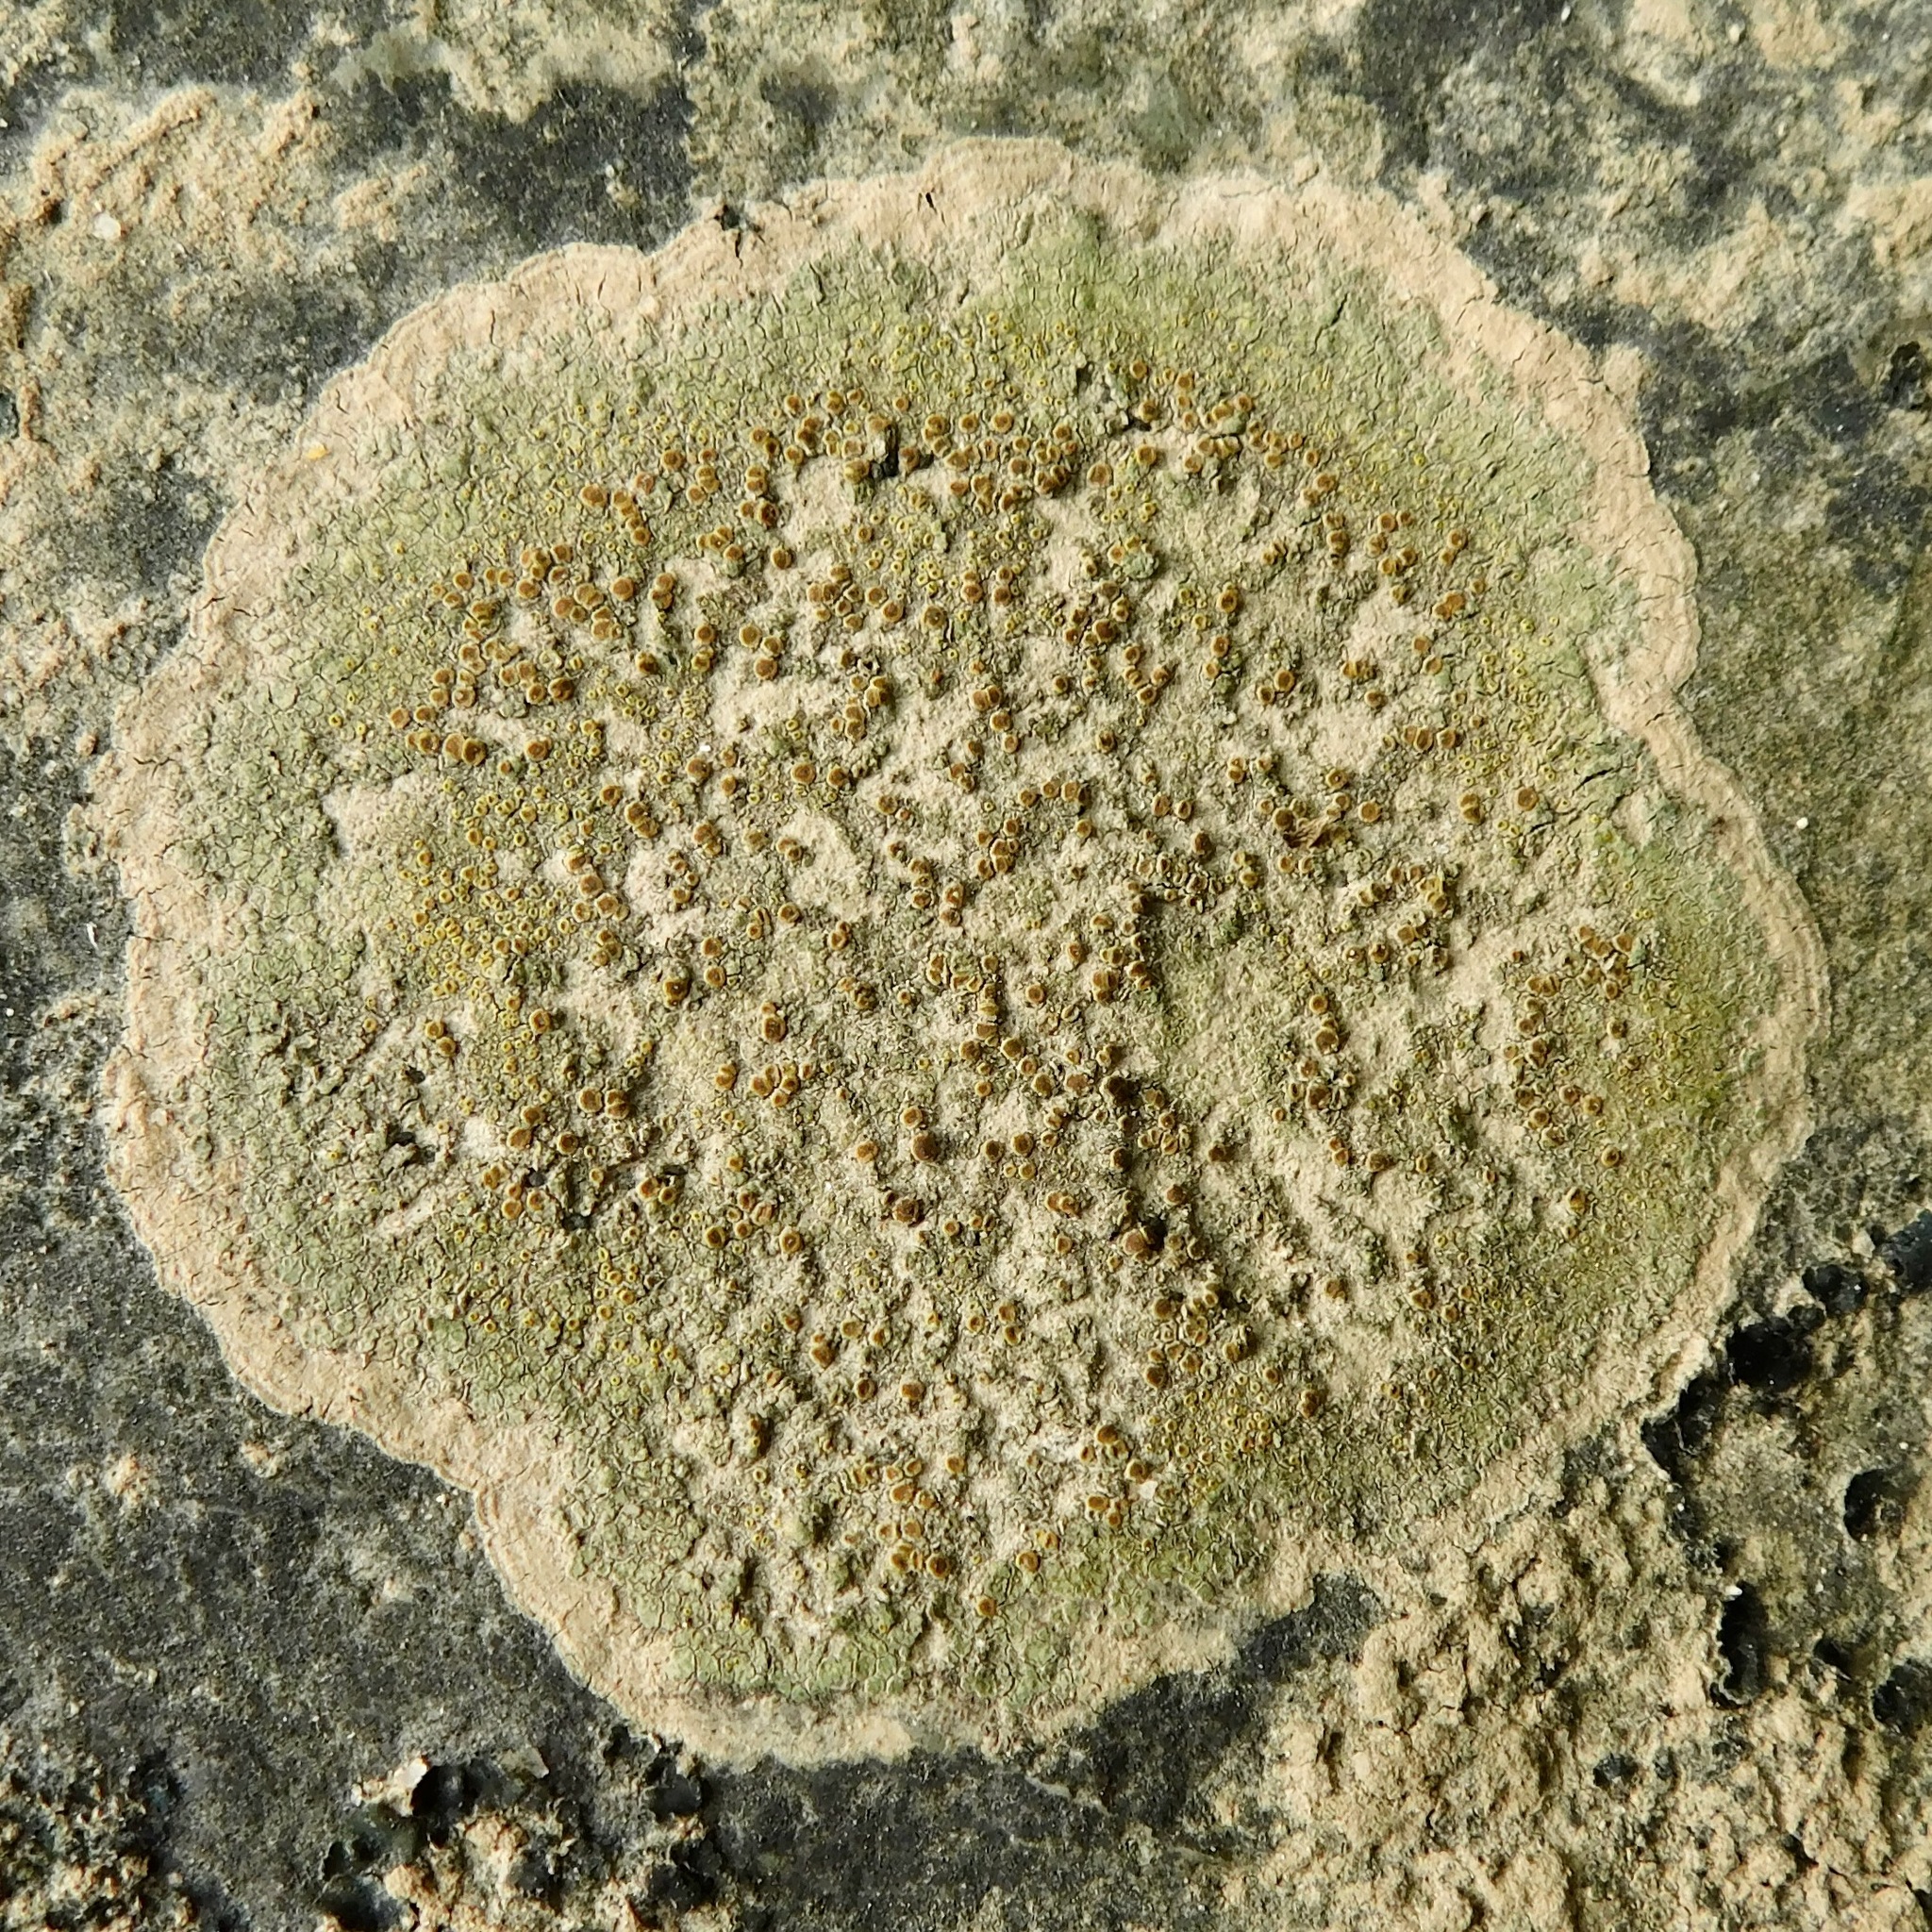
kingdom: Fungi
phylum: Ascomycota
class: Lecanoromycetes
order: Lecanorales
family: Lecanoraceae
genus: Lecanora
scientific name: Lecanora subimmergens
